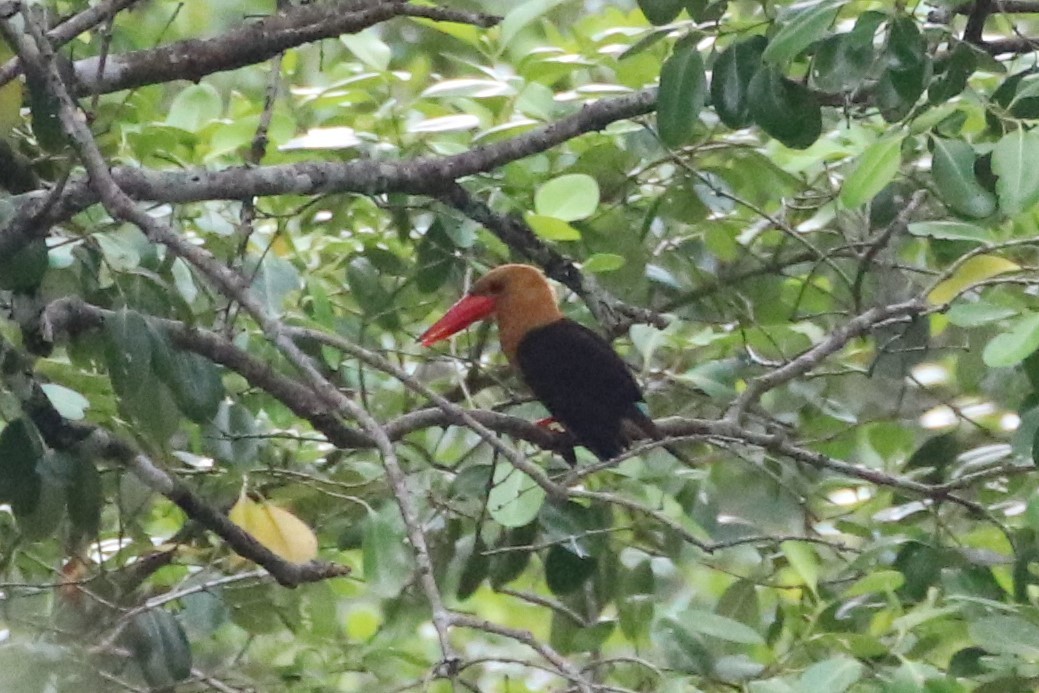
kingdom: Animalia
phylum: Chordata
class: Aves
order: Coraciiformes
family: Alcedinidae
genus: Pelargopsis
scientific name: Pelargopsis amauroptera
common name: Brown-winged kingfisher
